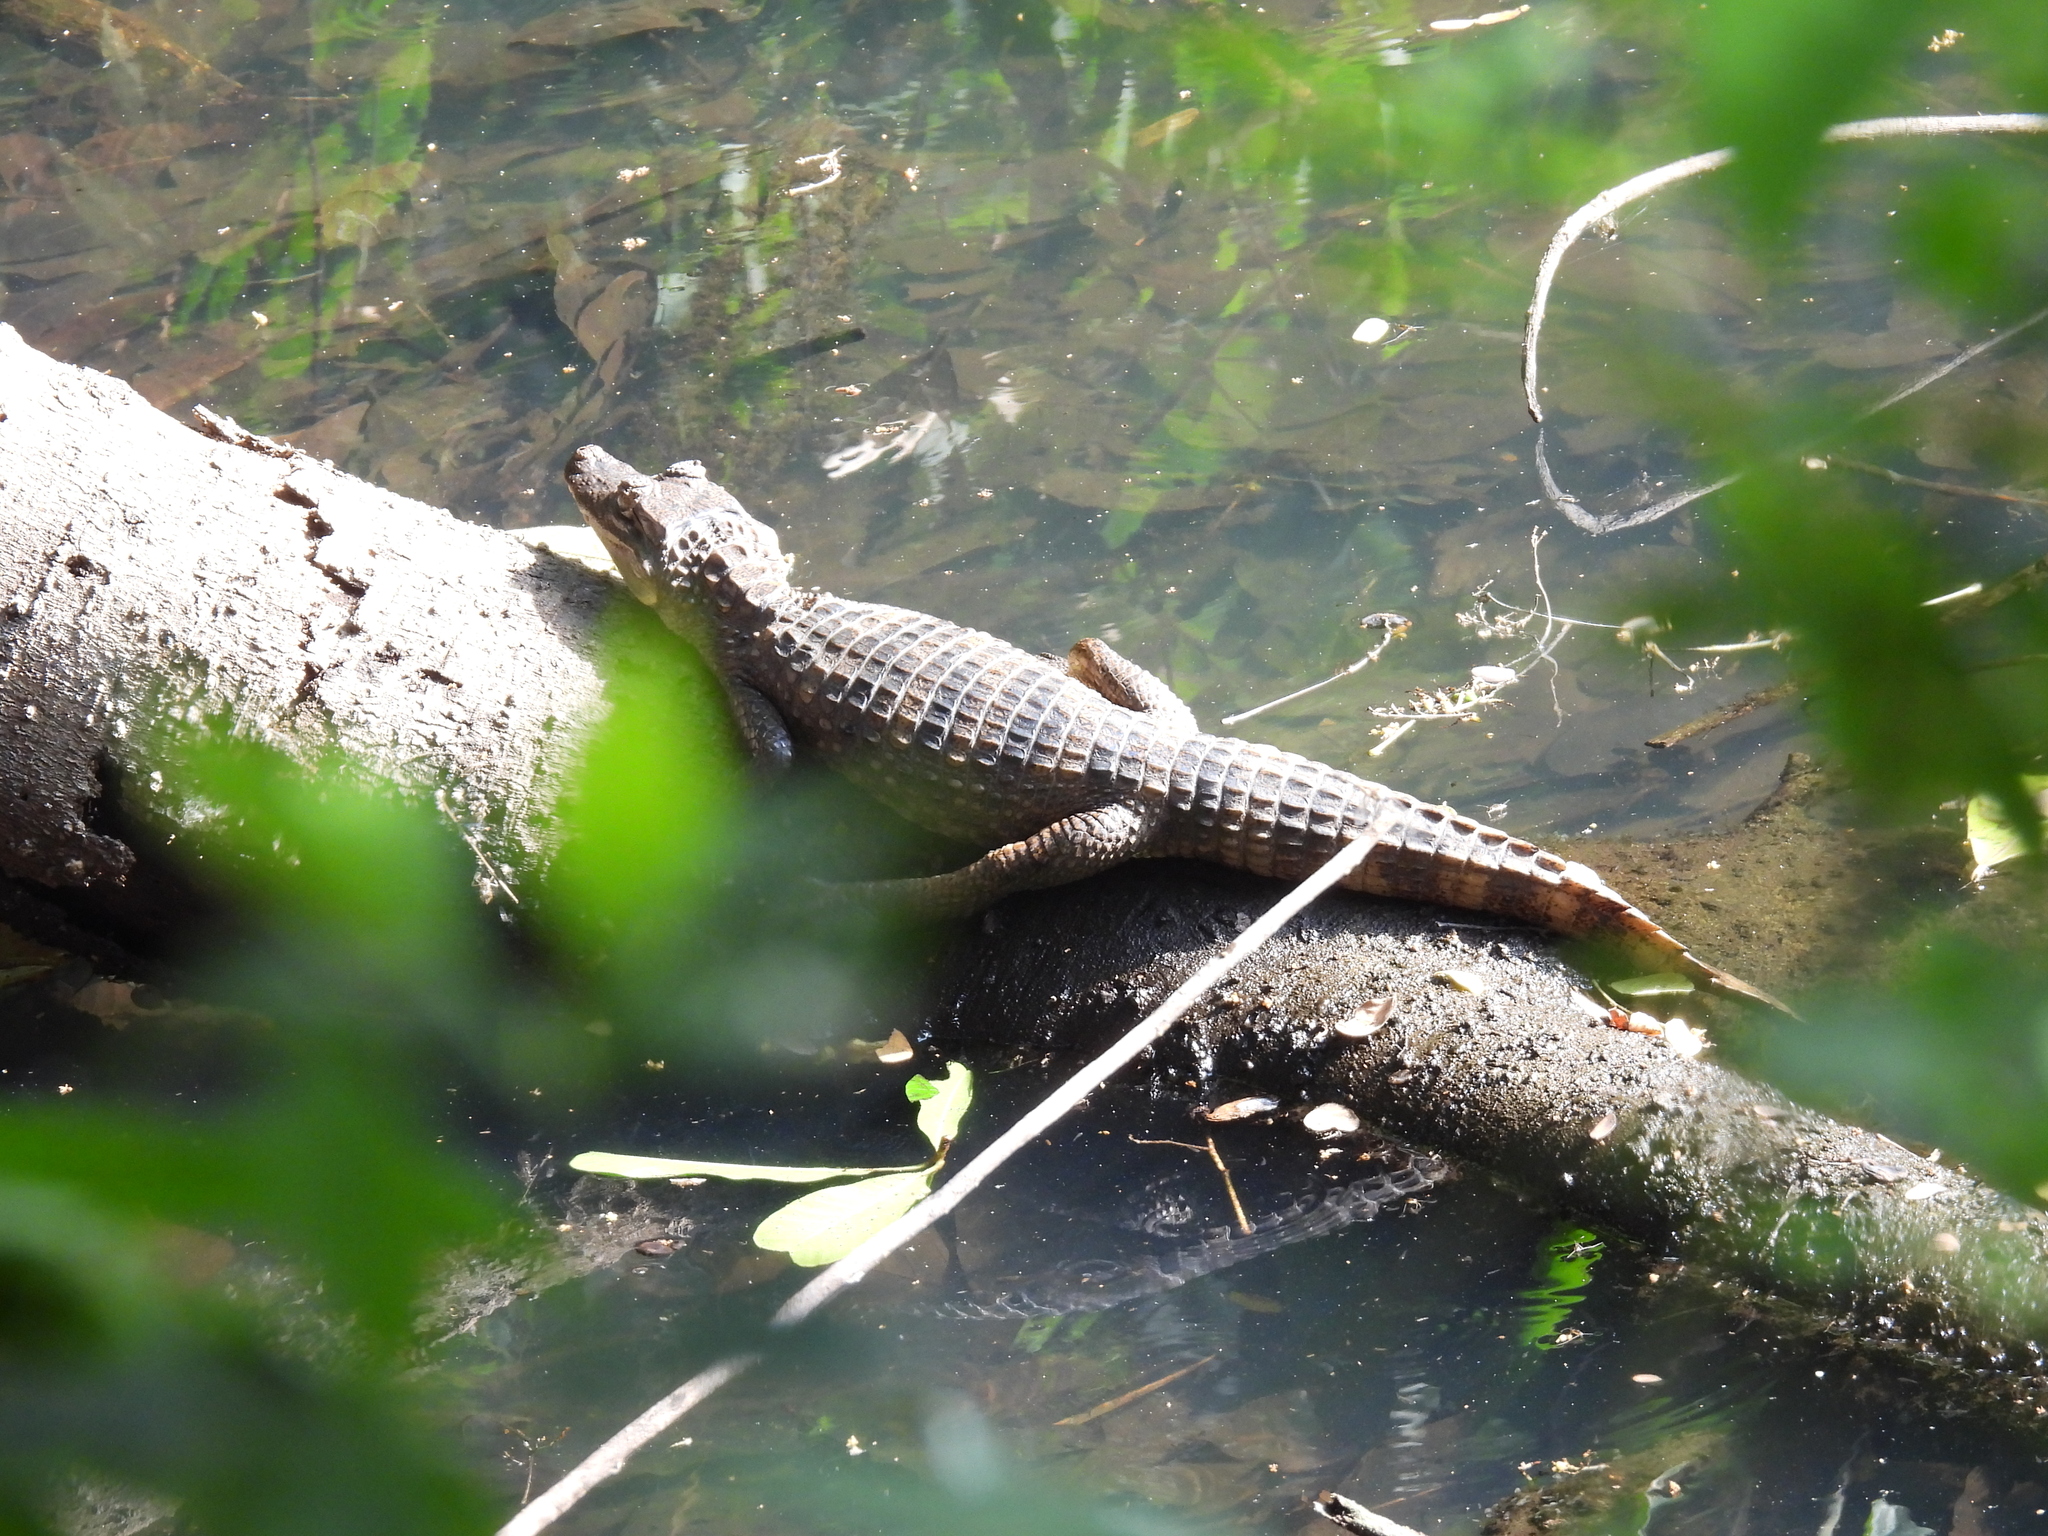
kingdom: Animalia
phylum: Chordata
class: Crocodylia
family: Alligatoridae
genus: Caiman
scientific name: Caiman crocodilus
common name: Common caiman
